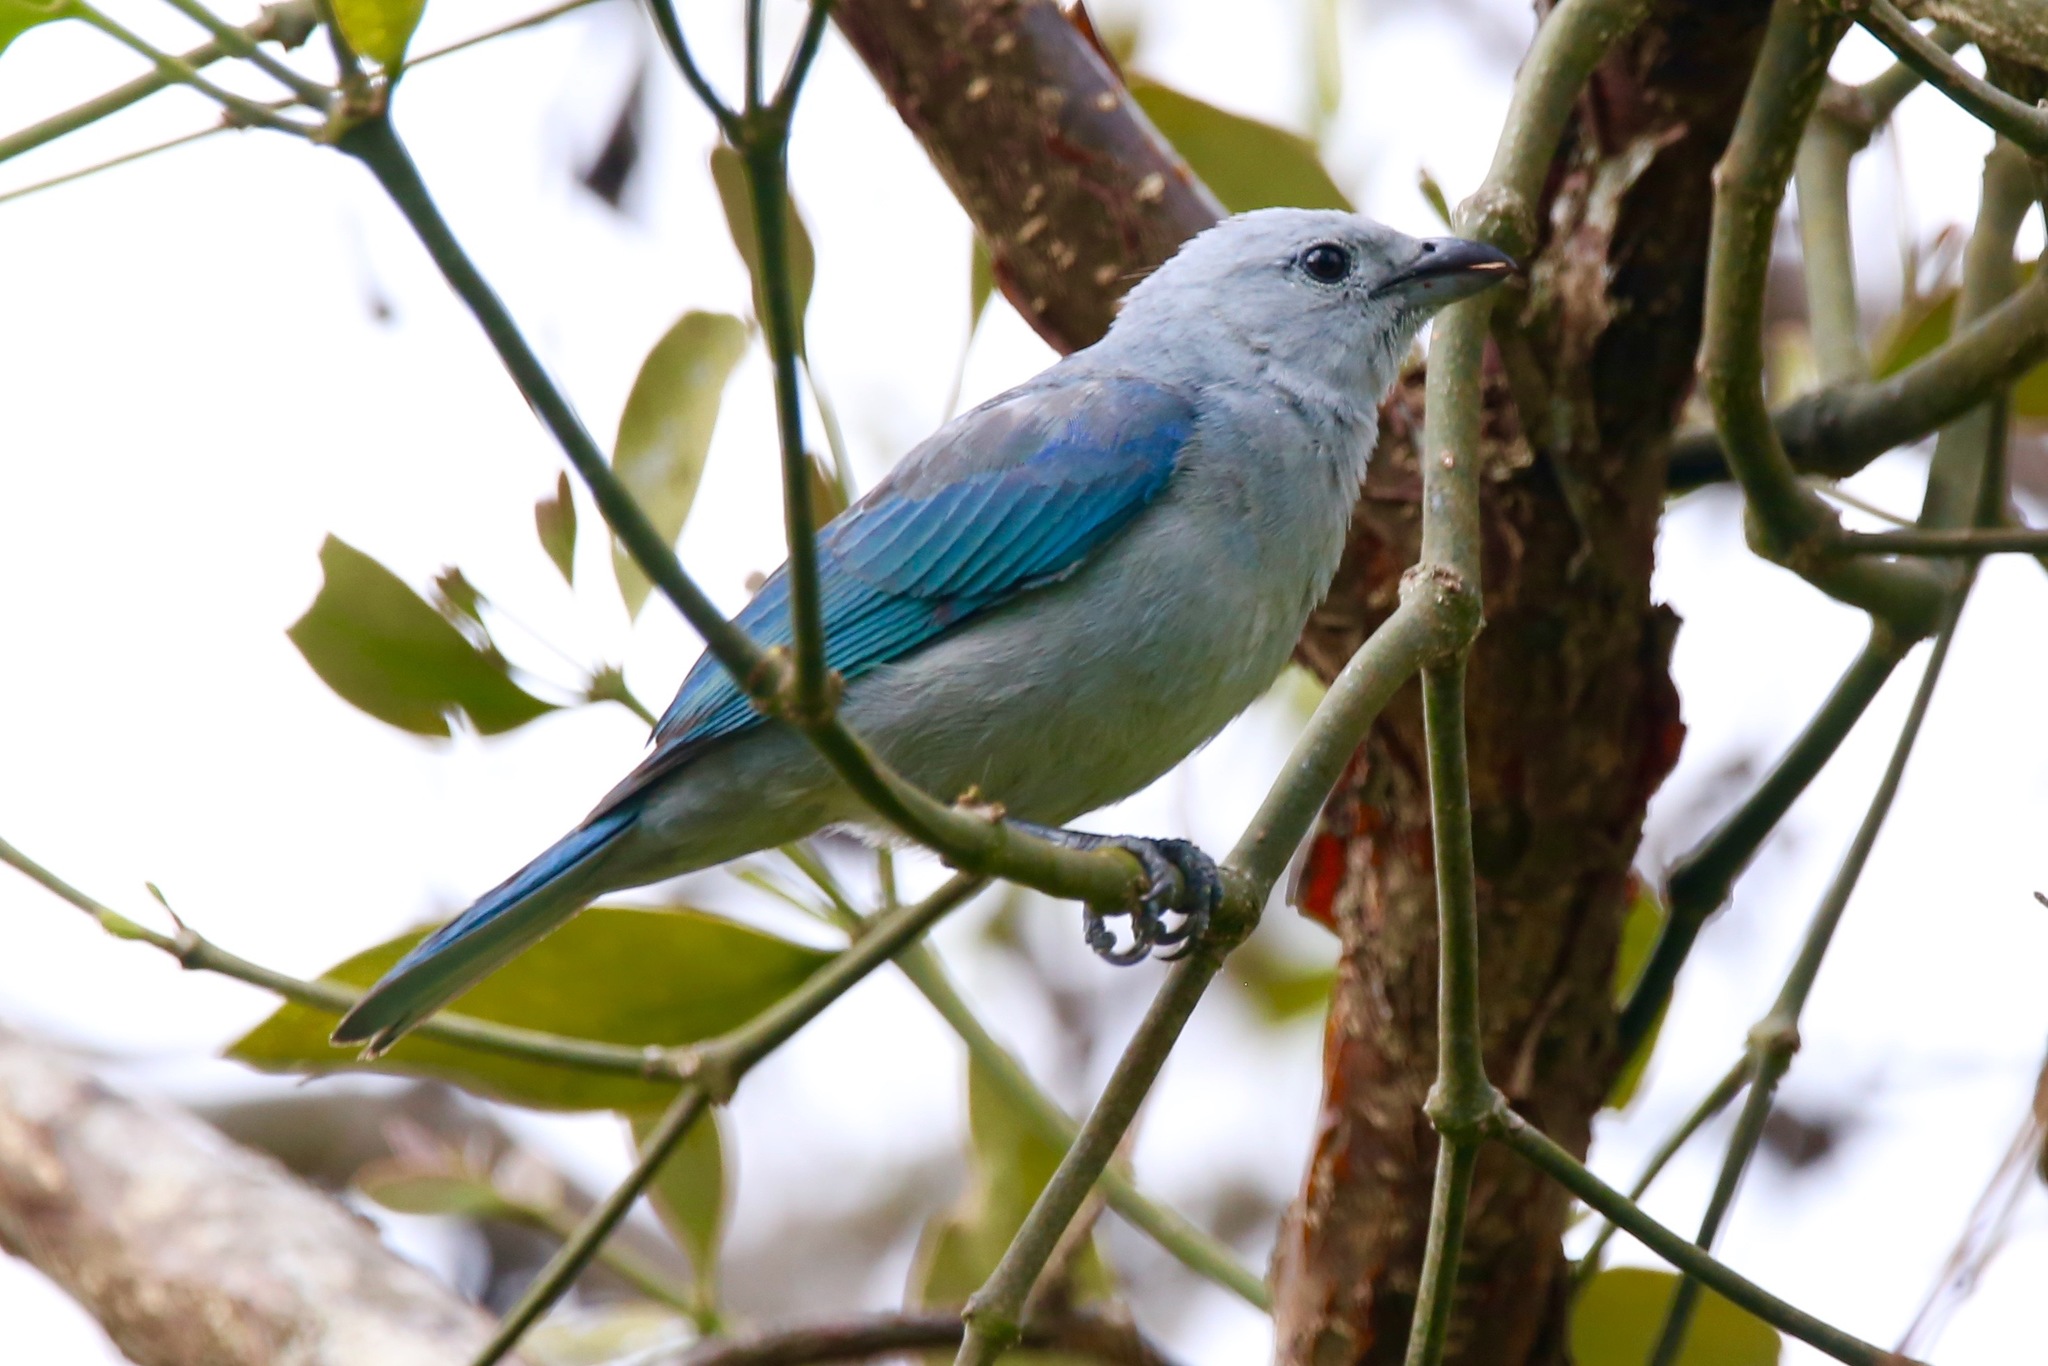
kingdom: Animalia
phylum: Chordata
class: Aves
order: Passeriformes
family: Thraupidae
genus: Thraupis
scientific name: Thraupis episcopus
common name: Blue-grey tanager
